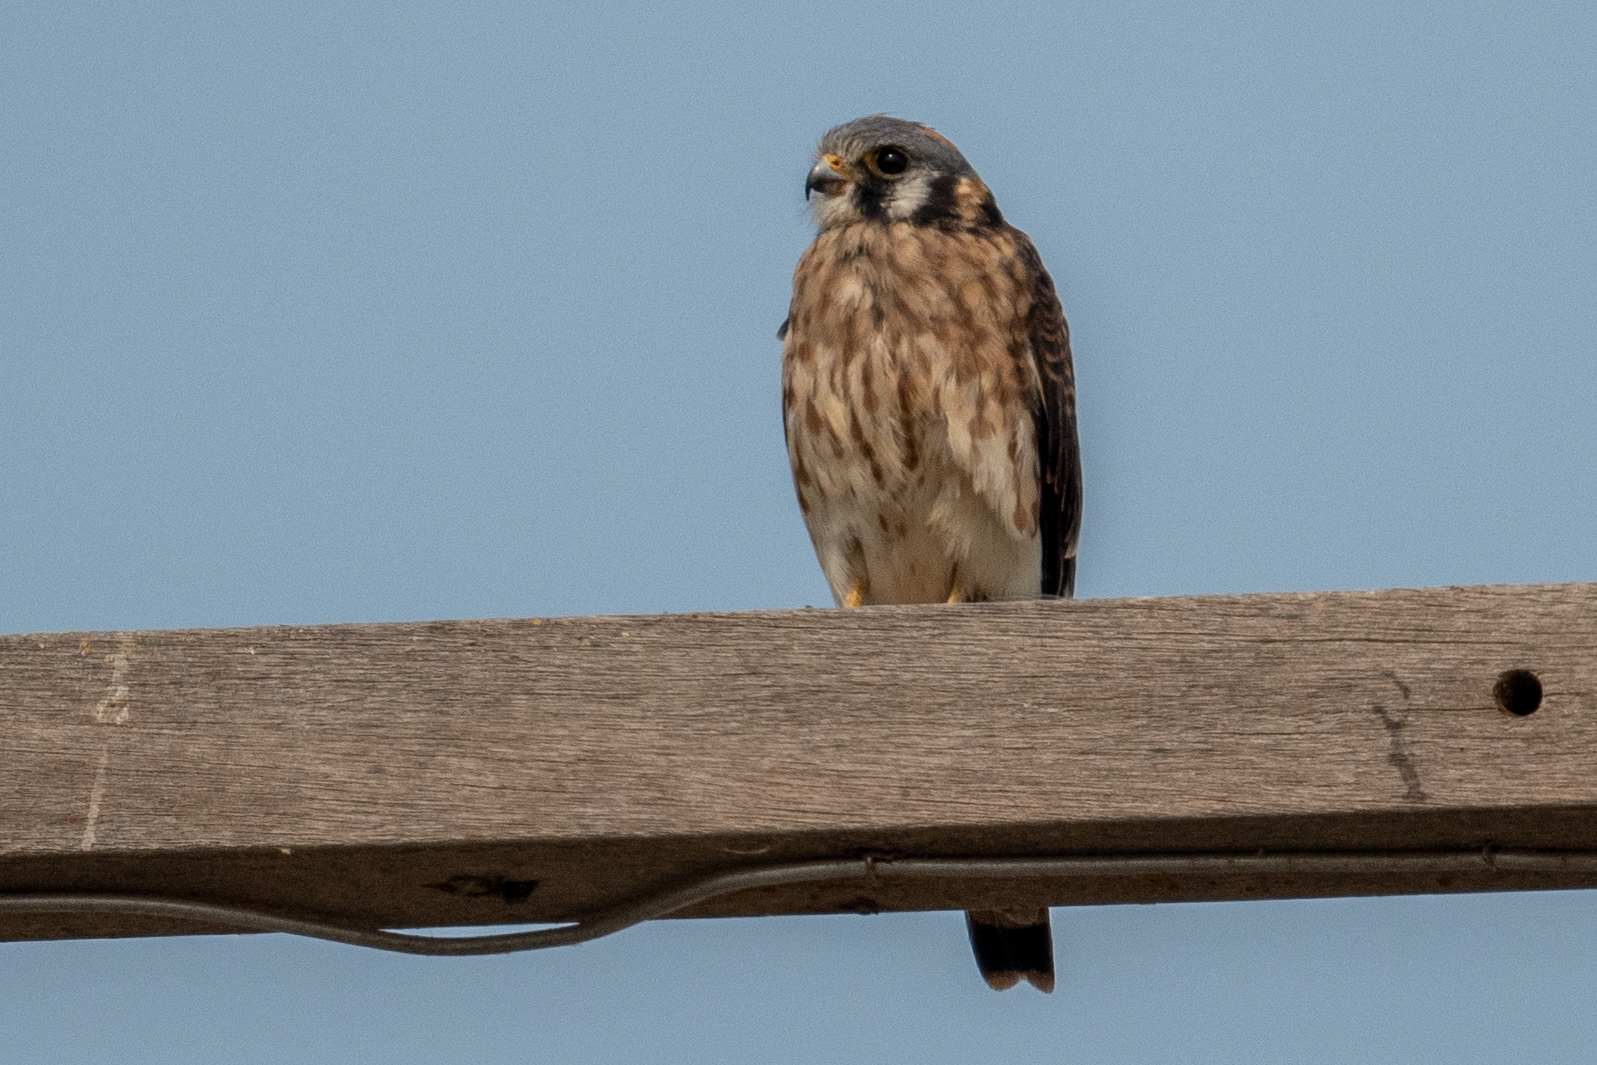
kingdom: Animalia
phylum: Chordata
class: Aves
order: Falconiformes
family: Falconidae
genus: Falco
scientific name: Falco sparverius
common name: American kestrel
